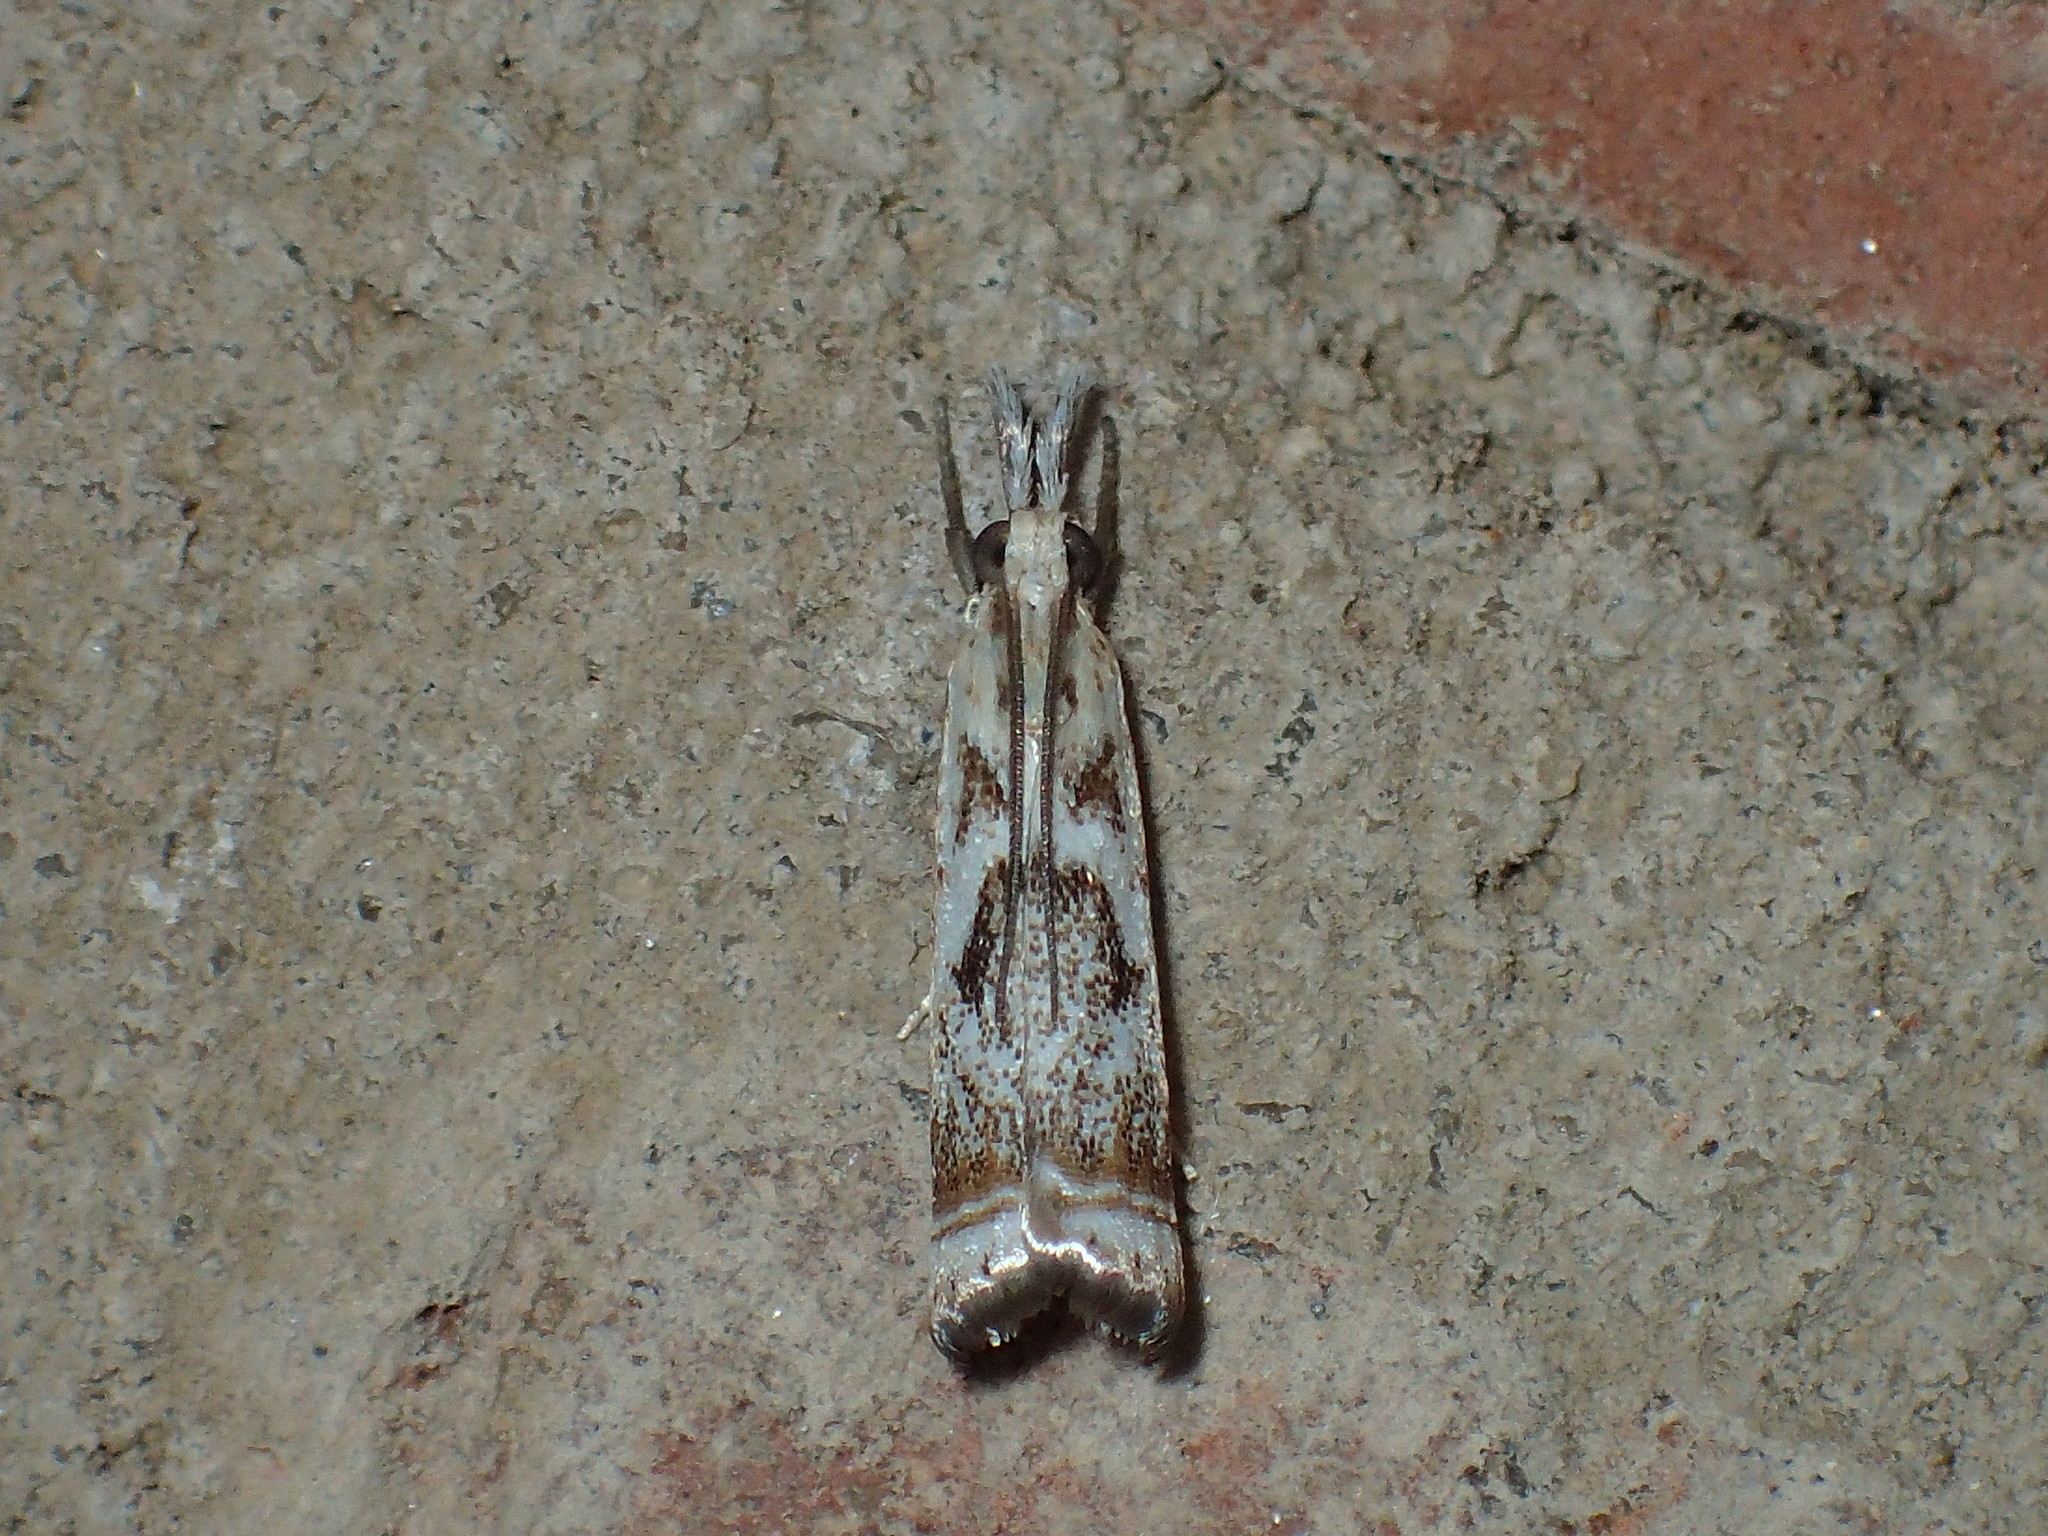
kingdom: Animalia
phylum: Arthropoda
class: Insecta
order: Lepidoptera
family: Crambidae
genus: Microcrambus
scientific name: Microcrambus elegans
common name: Elegant grass-veneer
